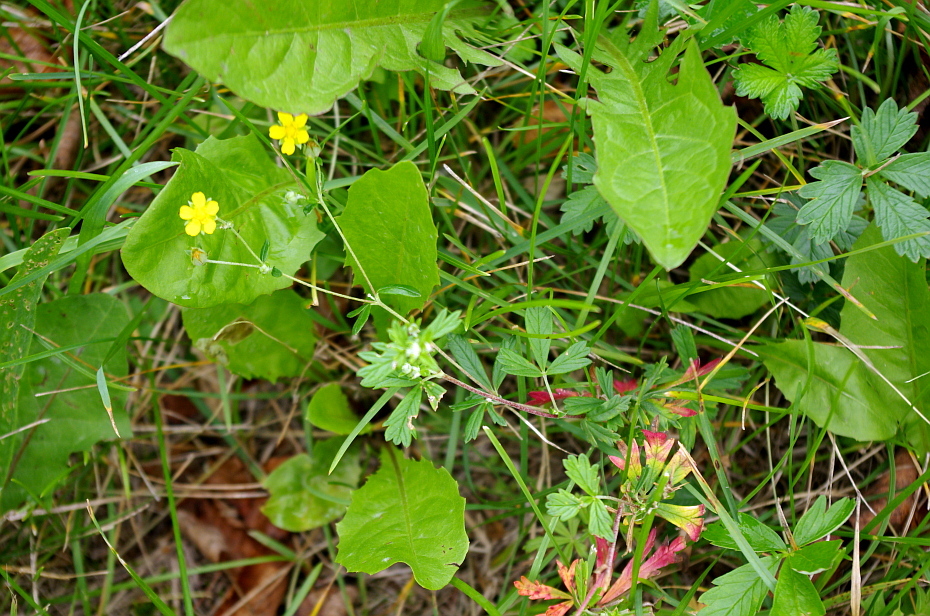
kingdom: Plantae
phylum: Tracheophyta
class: Magnoliopsida
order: Asterales
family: Asteraceae
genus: Taraxacum
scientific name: Taraxacum officinale
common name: Common dandelion
